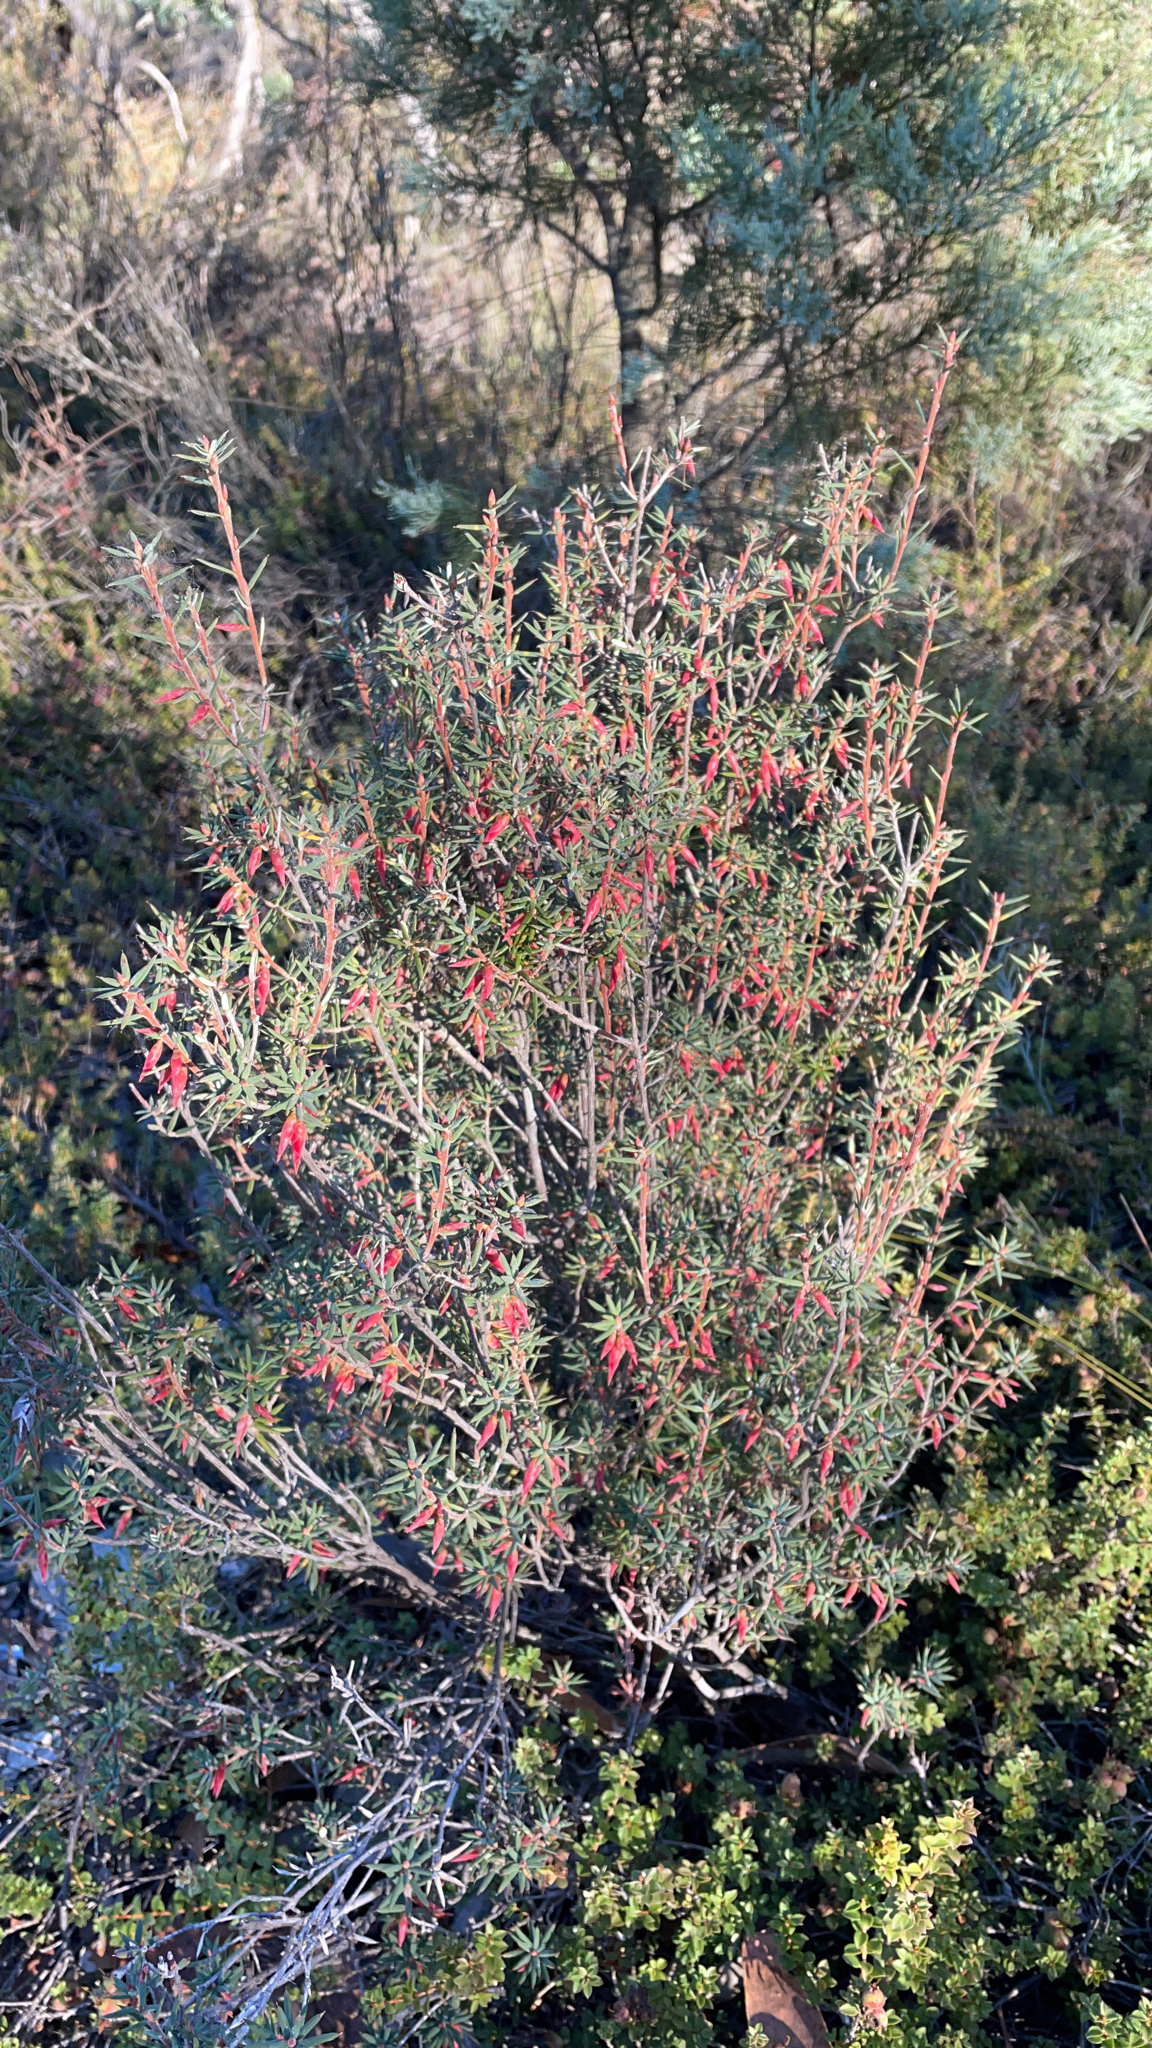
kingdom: Plantae
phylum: Tracheophyta
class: Magnoliopsida
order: Ericales
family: Ericaceae
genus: Stenanthera
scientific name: Stenanthera conostephioides
